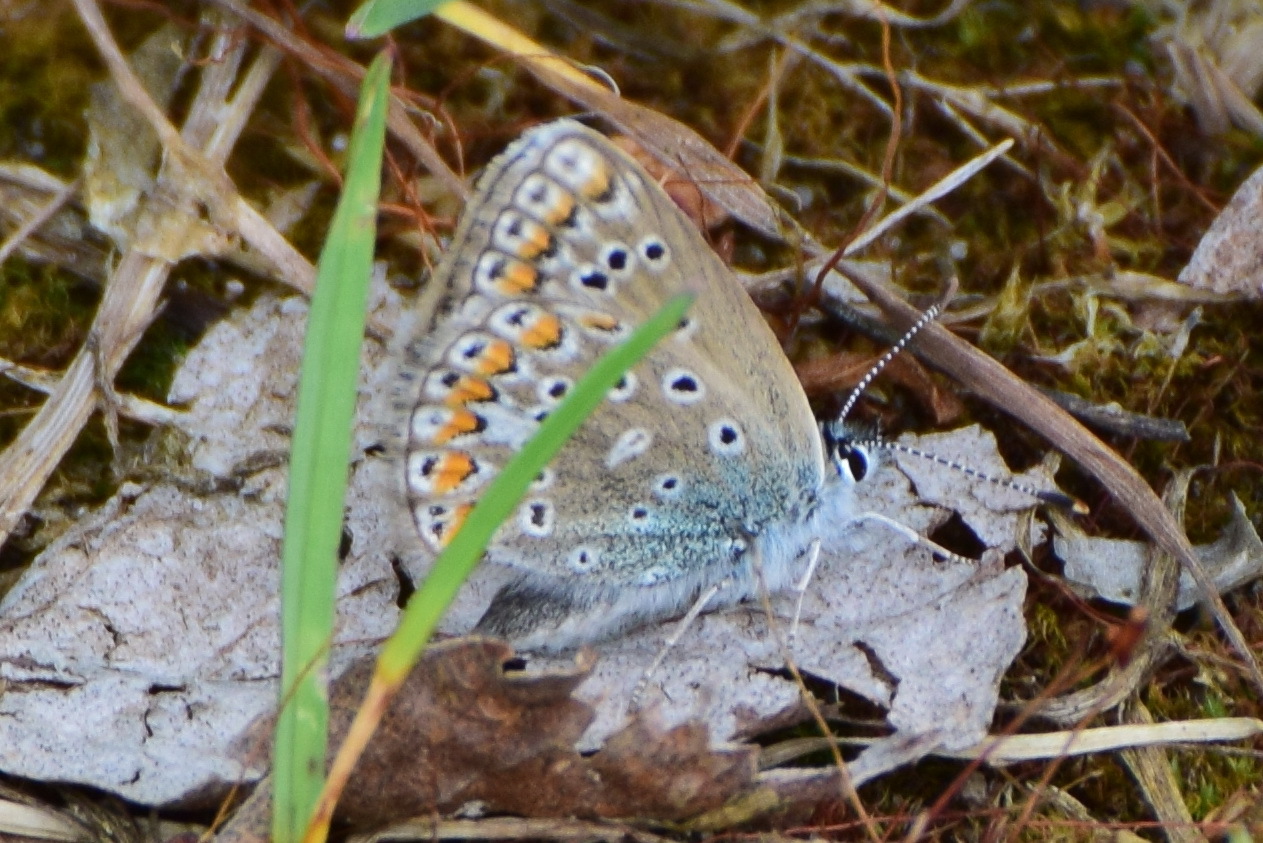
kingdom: Animalia
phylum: Arthropoda
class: Insecta
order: Lepidoptera
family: Lycaenidae
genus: Polyommatus
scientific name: Polyommatus icarus
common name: Common blue
